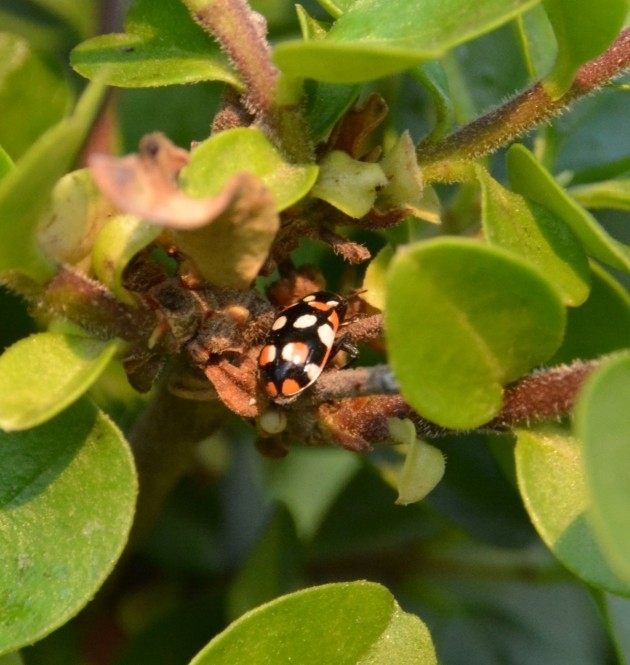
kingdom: Animalia
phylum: Arthropoda
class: Insecta
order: Coleoptera
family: Coccinellidae
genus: Eriopis
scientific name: Eriopis connexa
